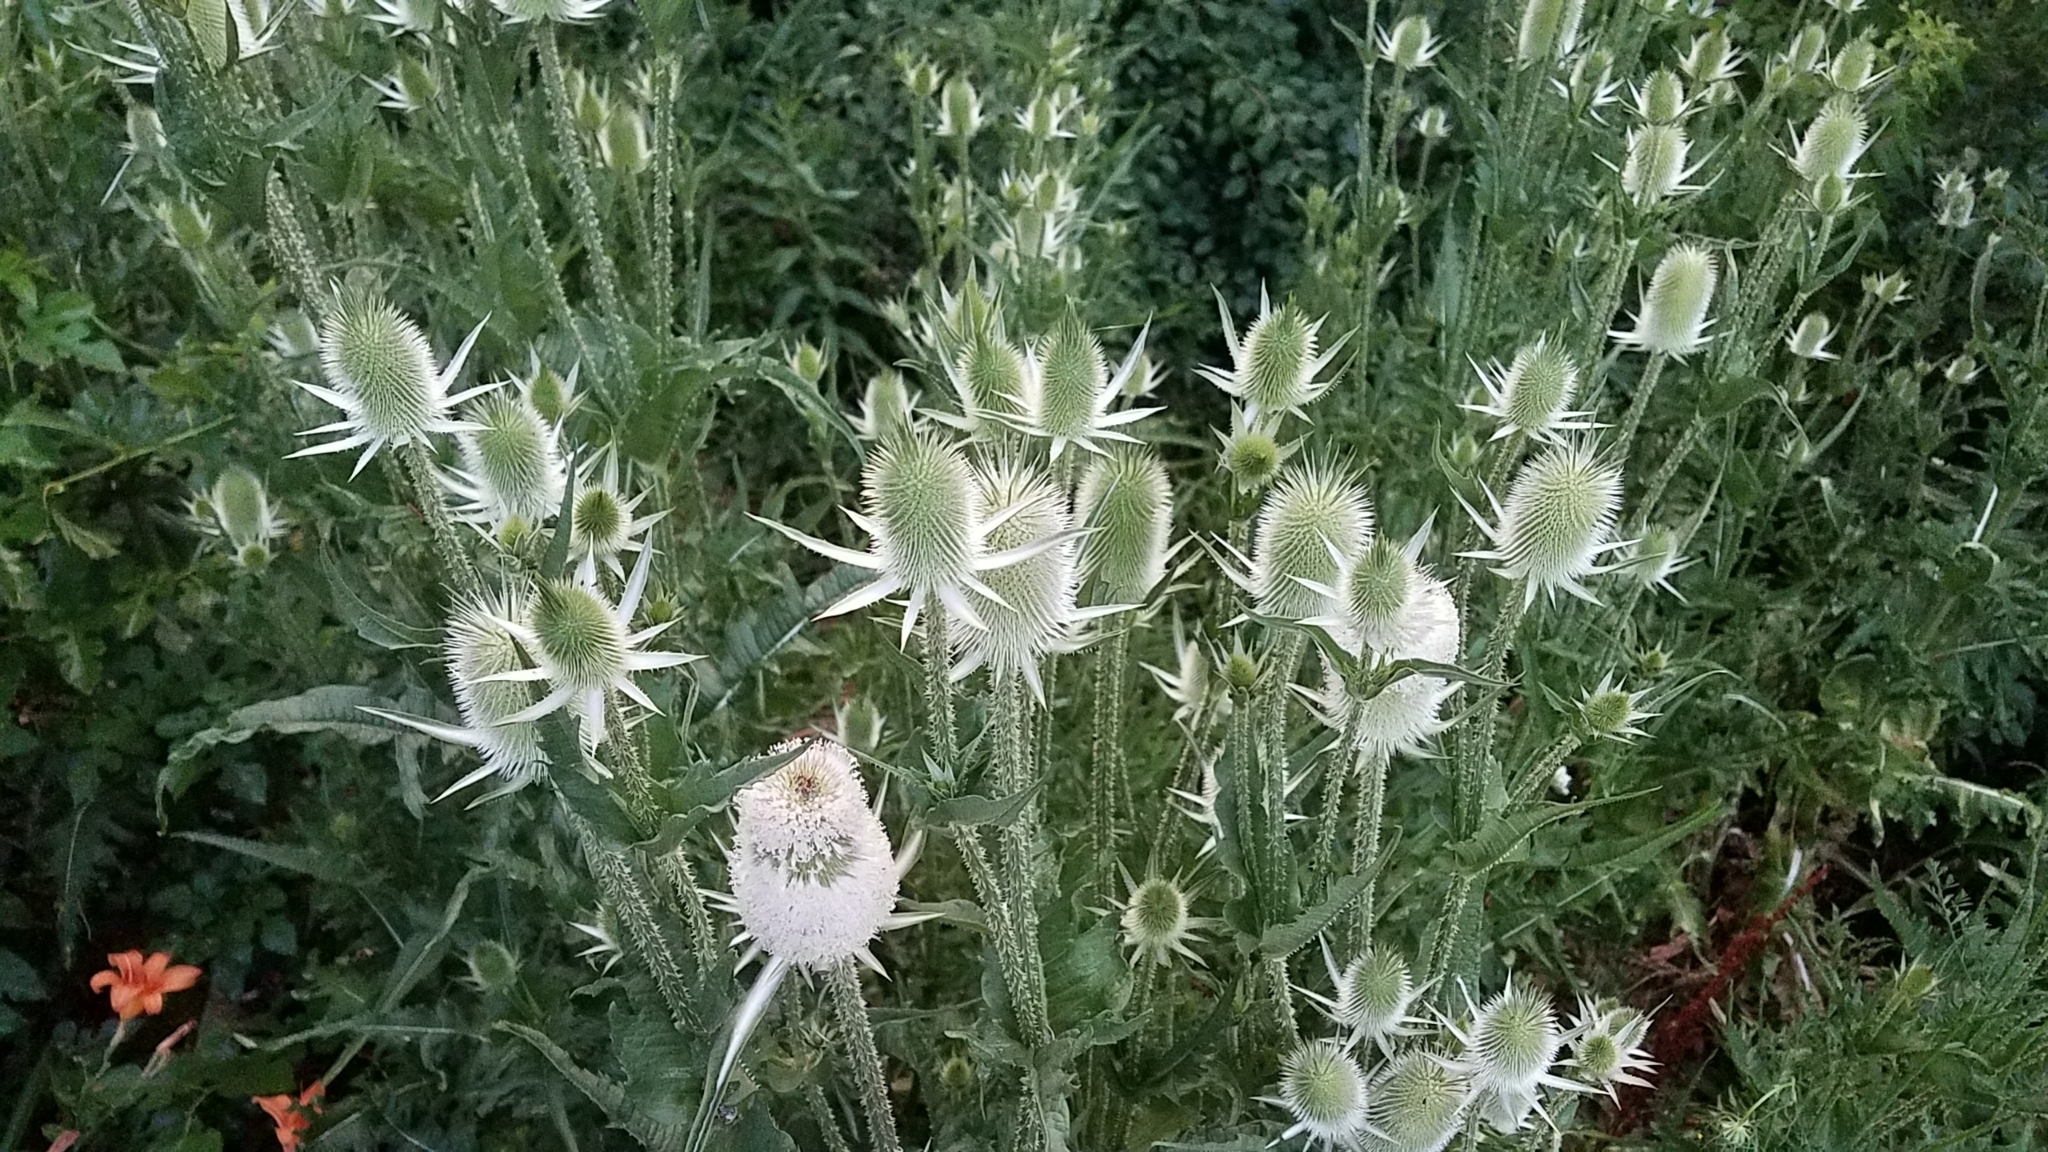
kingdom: Plantae
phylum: Tracheophyta
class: Magnoliopsida
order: Dipsacales
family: Caprifoliaceae
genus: Dipsacus
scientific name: Dipsacus laciniatus
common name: Cut-leaved teasel
